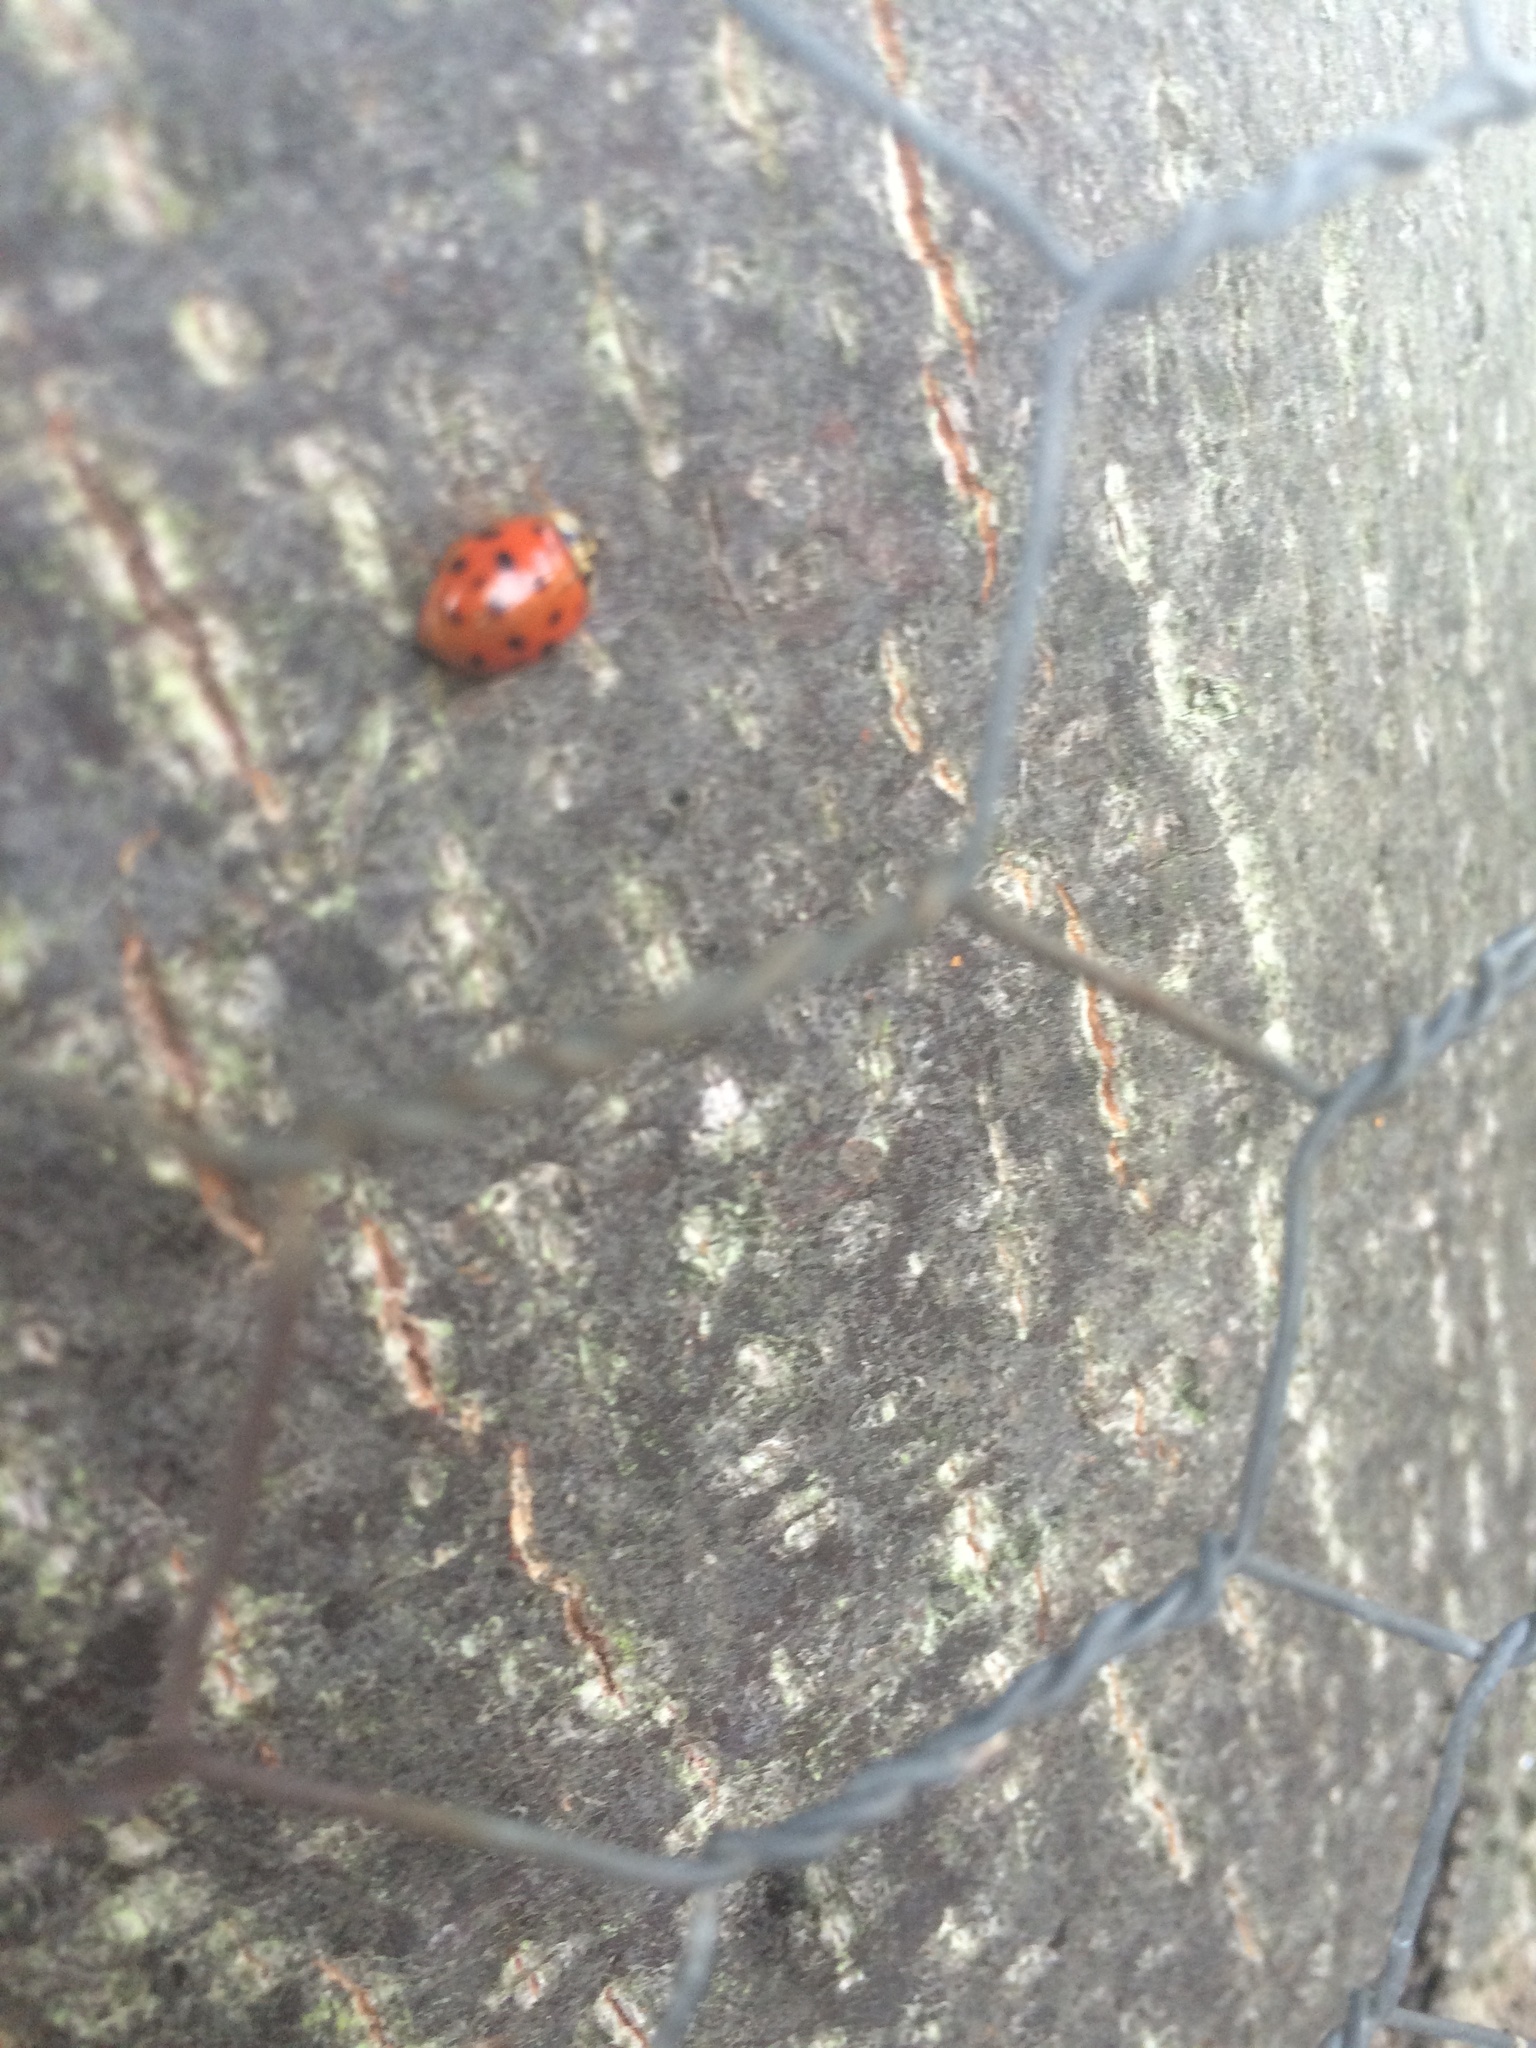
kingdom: Animalia
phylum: Arthropoda
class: Insecta
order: Coleoptera
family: Coccinellidae
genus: Harmonia
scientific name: Harmonia axyridis
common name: Harlequin ladybird
